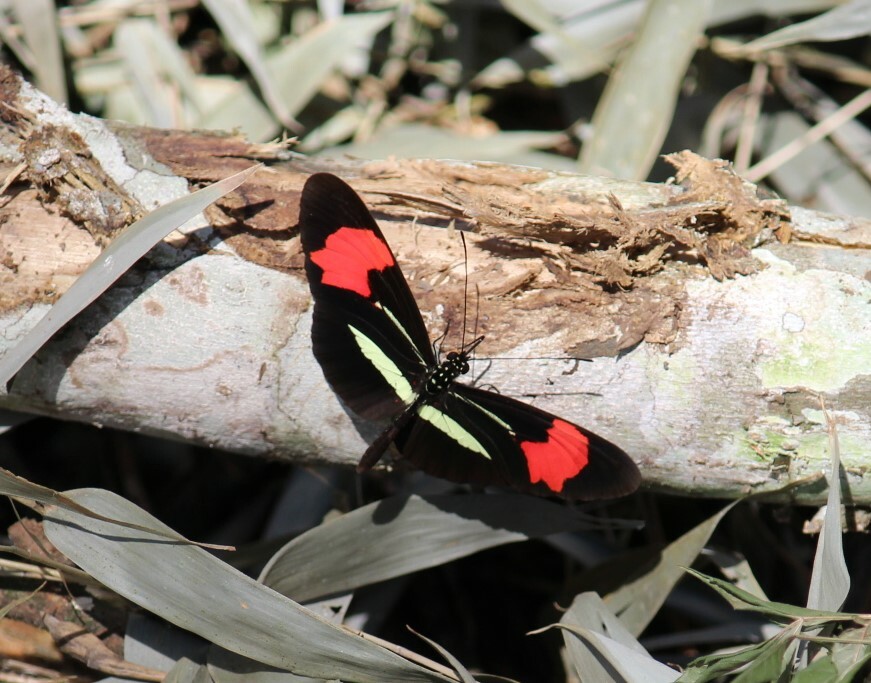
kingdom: Animalia
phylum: Arthropoda
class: Insecta
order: Lepidoptera
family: Nymphalidae
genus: Heliconius
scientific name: Heliconius erato
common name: Common patch longwing
